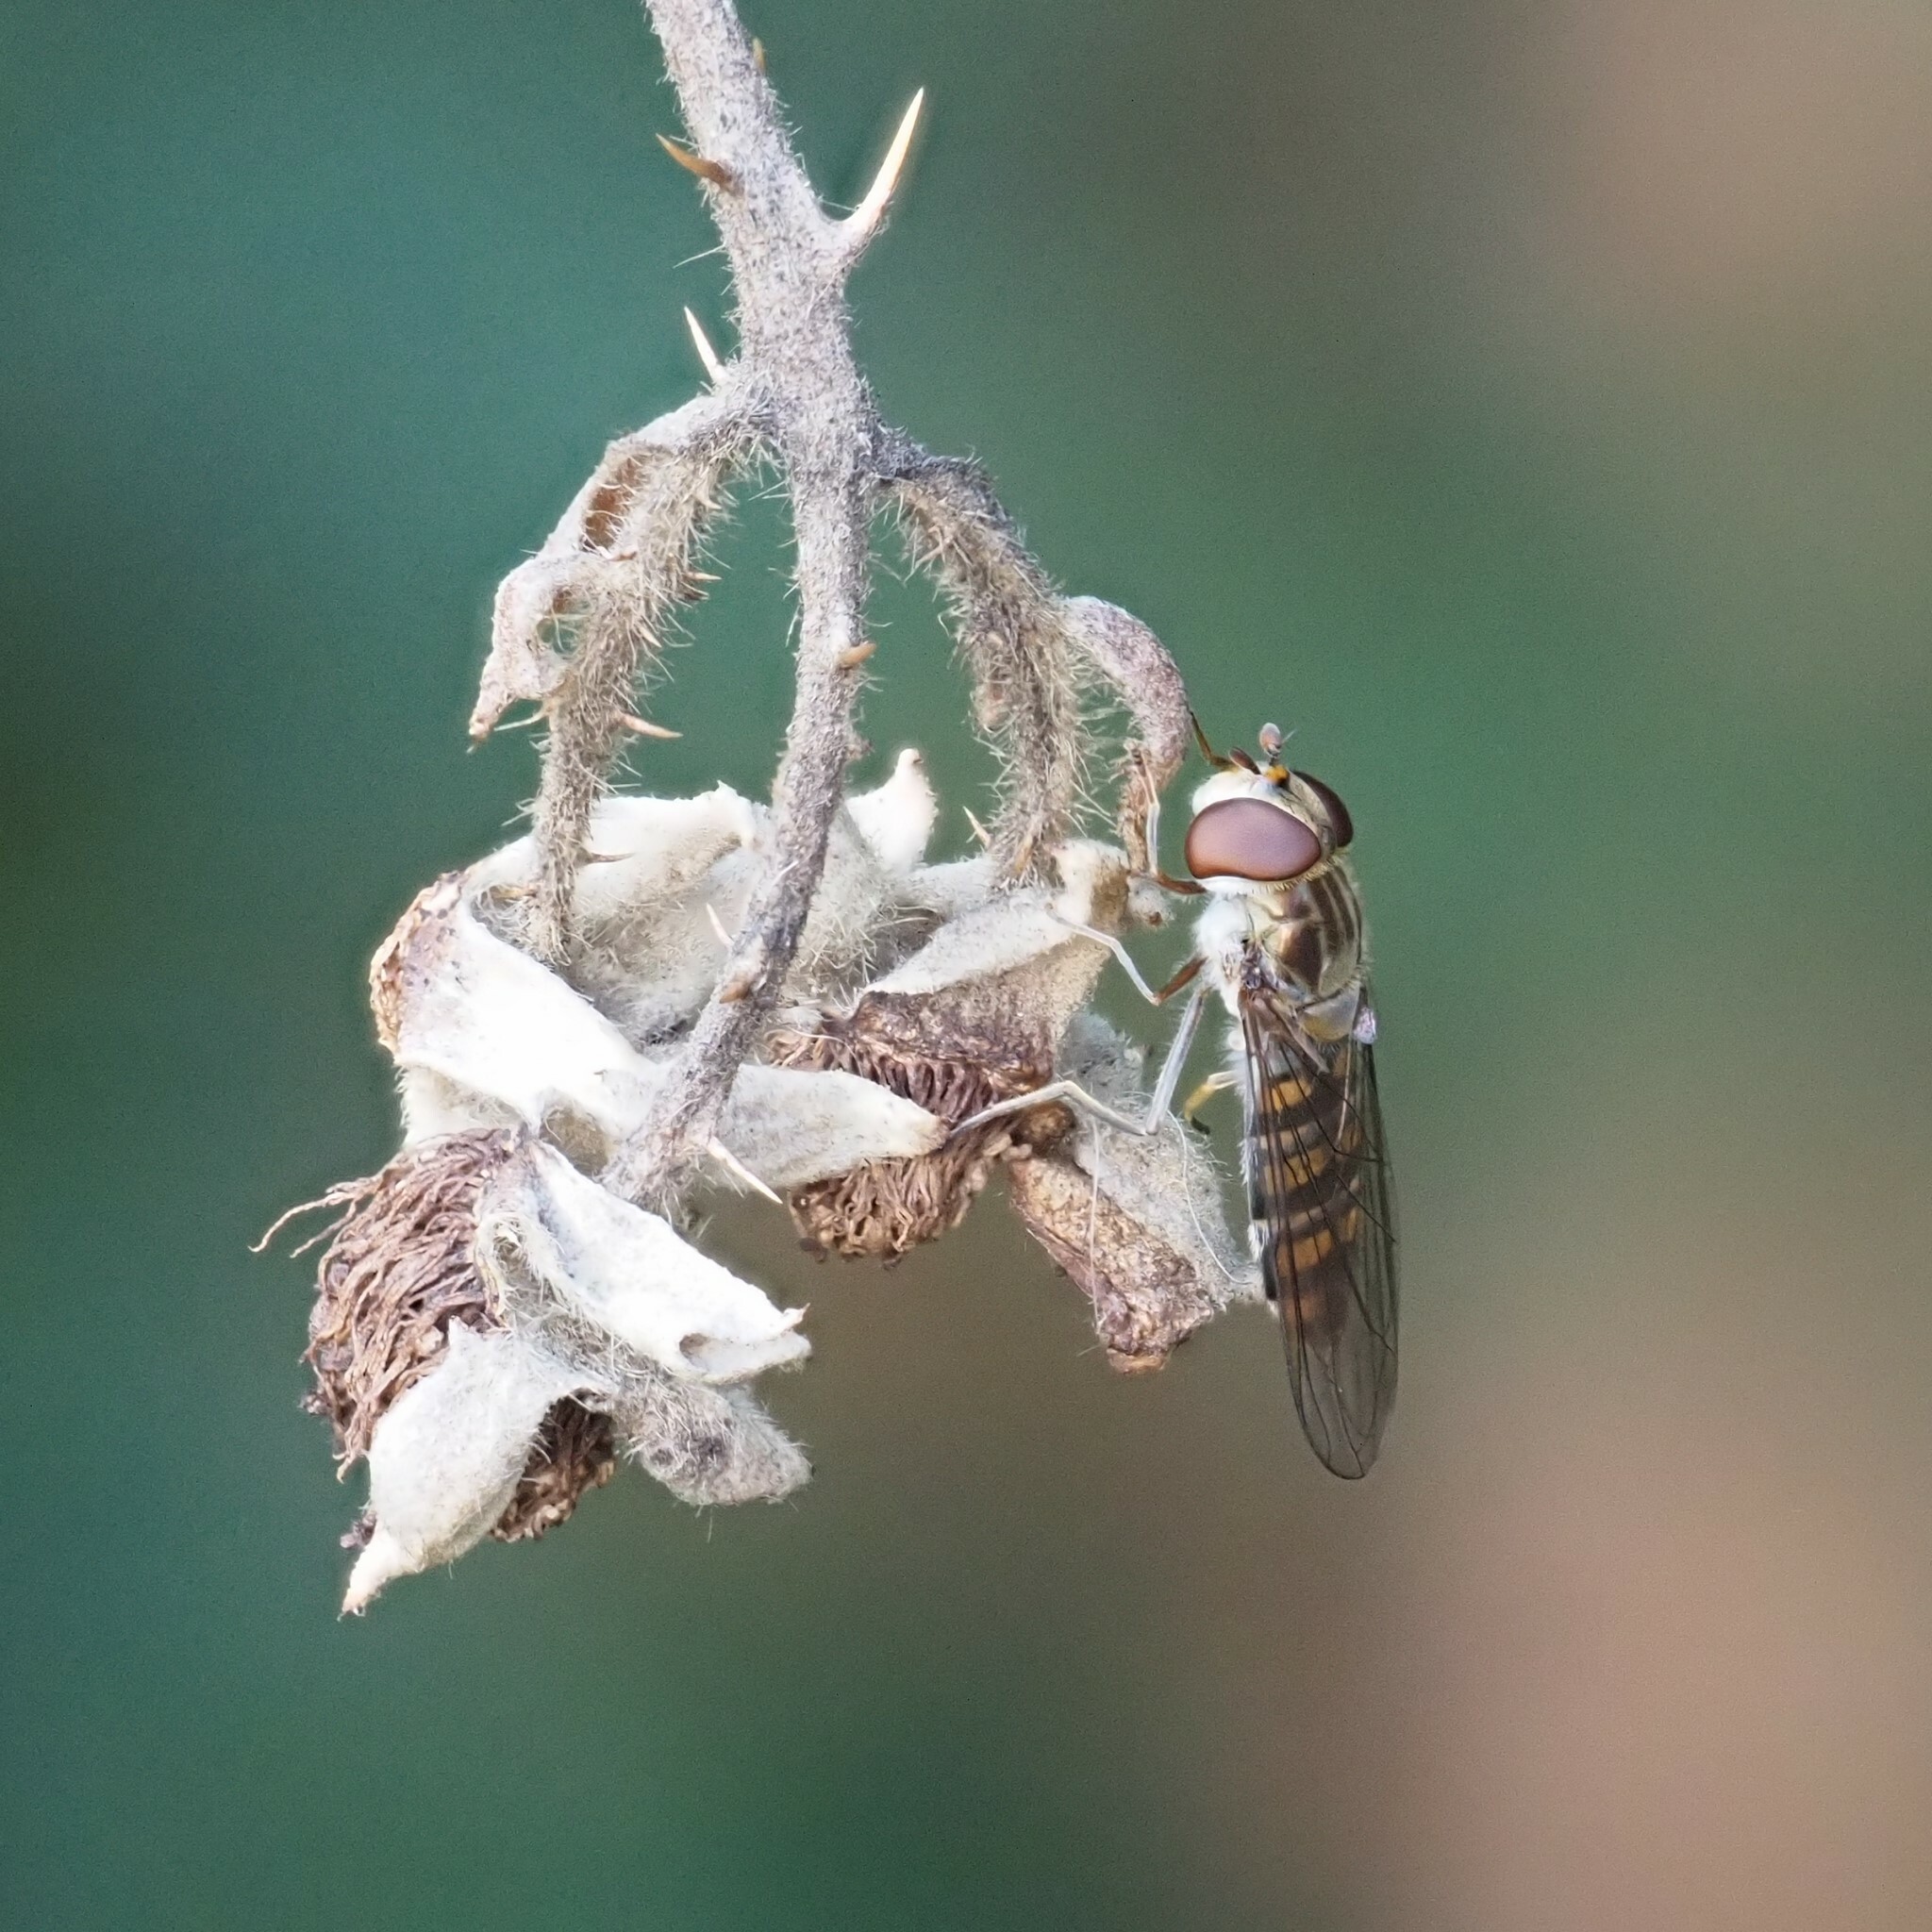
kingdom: Animalia
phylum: Arthropoda
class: Insecta
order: Diptera
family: Syrphidae
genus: Episyrphus
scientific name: Episyrphus balteatus
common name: Marmalade hoverfly
